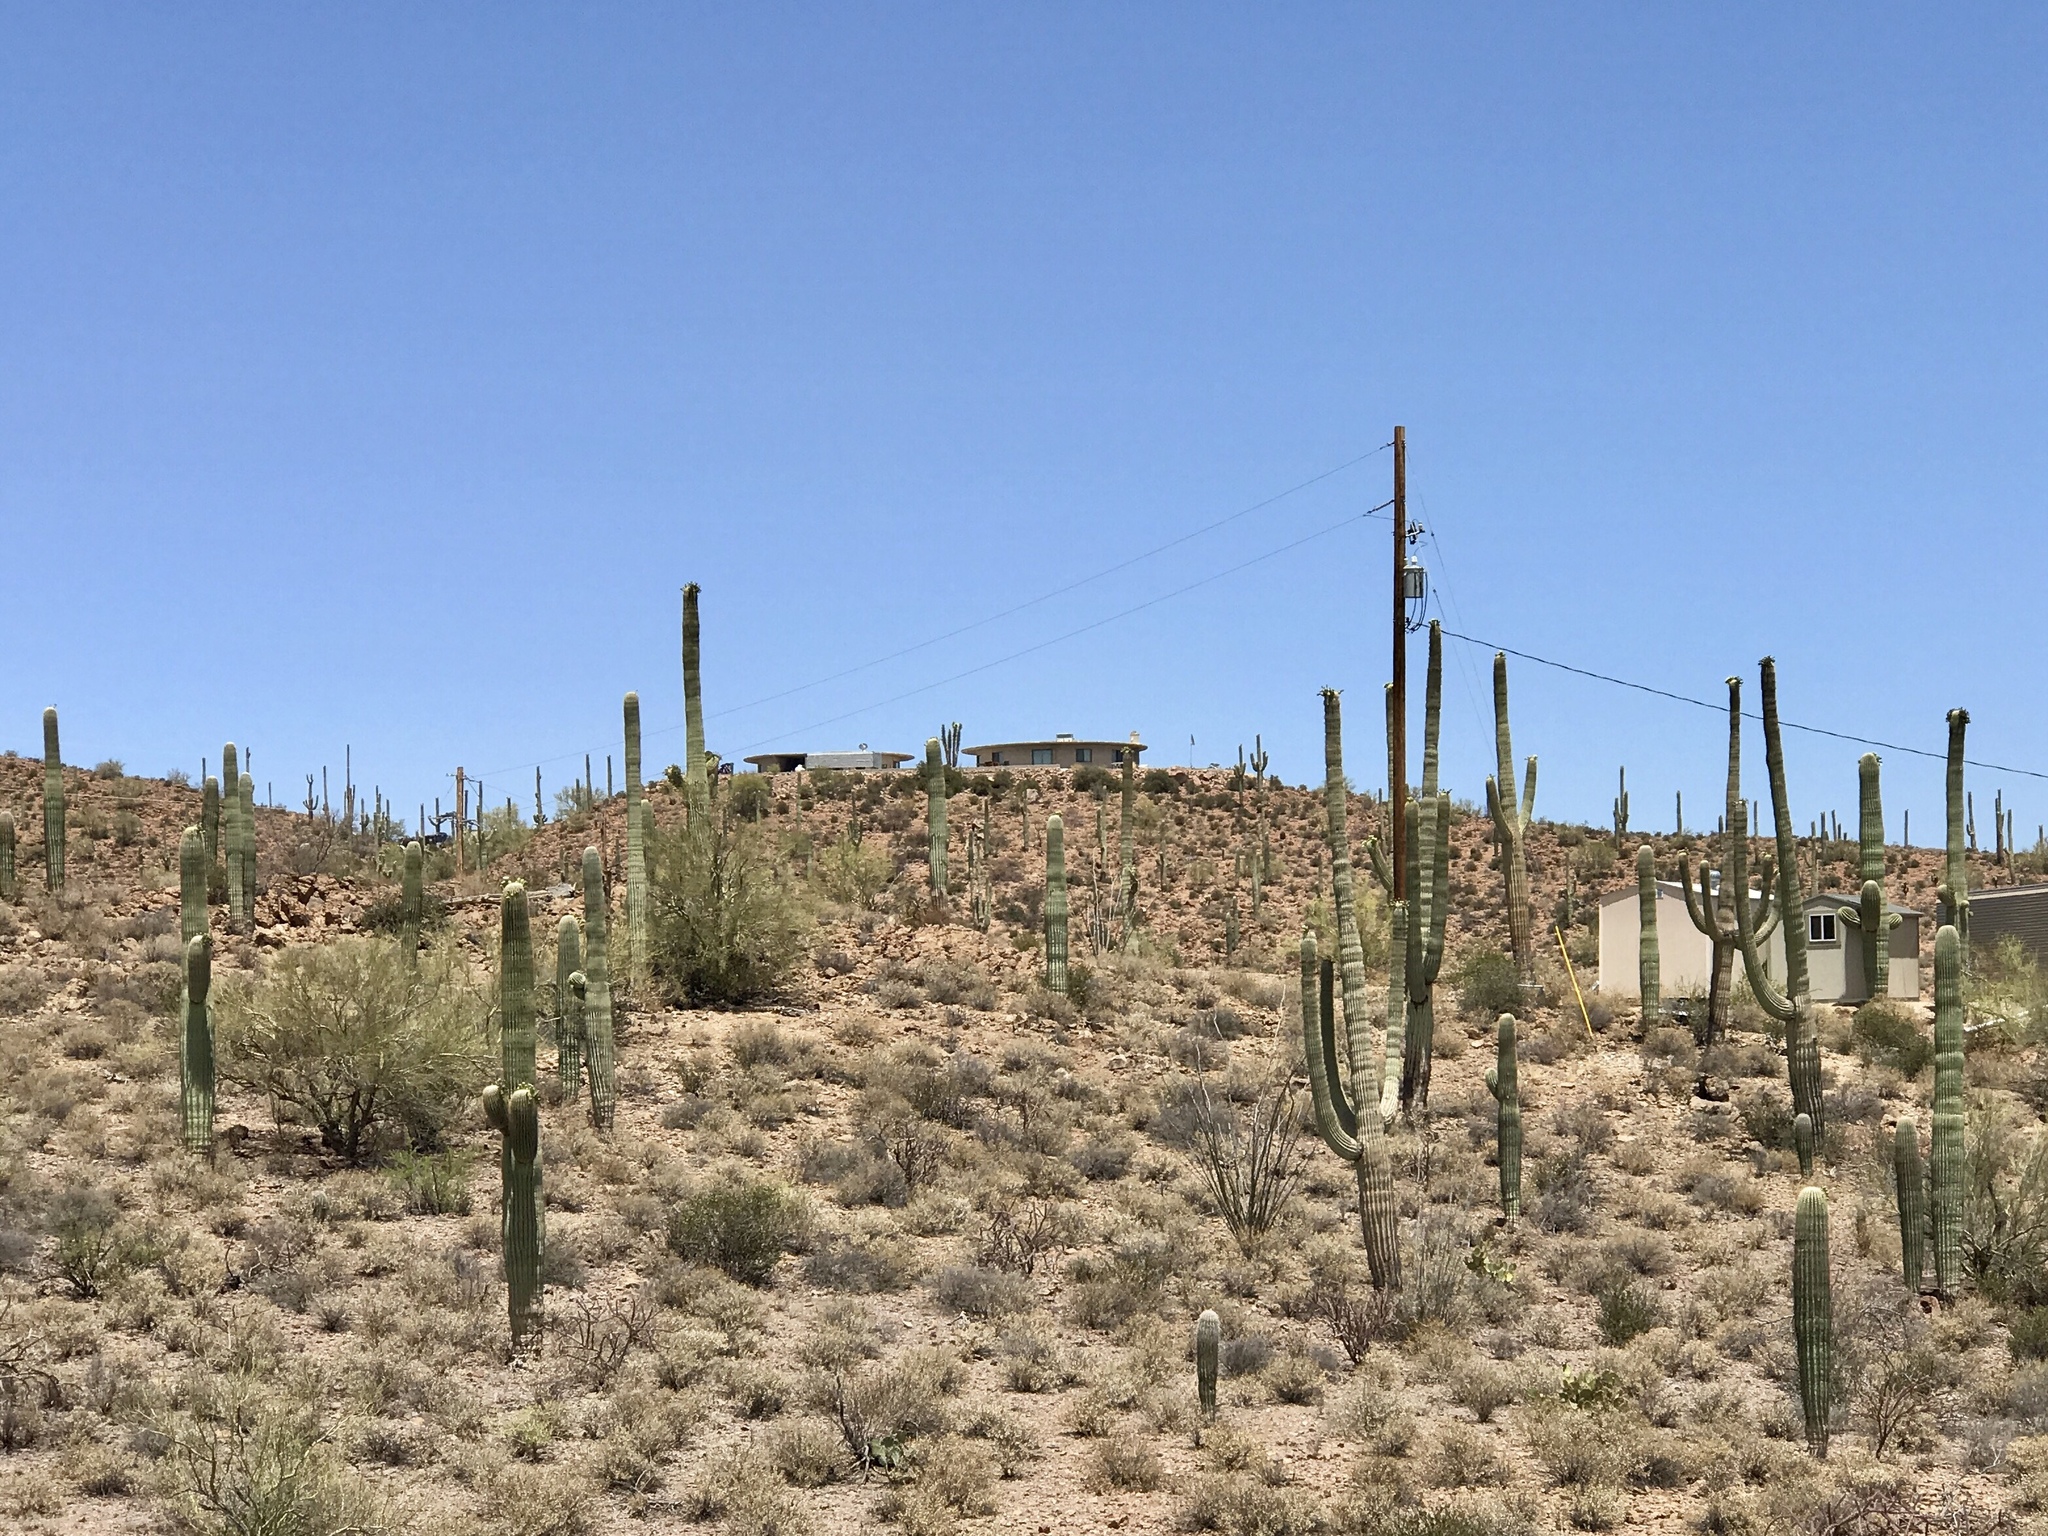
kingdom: Plantae
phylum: Tracheophyta
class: Magnoliopsida
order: Caryophyllales
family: Cactaceae
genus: Carnegiea
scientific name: Carnegiea gigantea
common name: Saguaro
